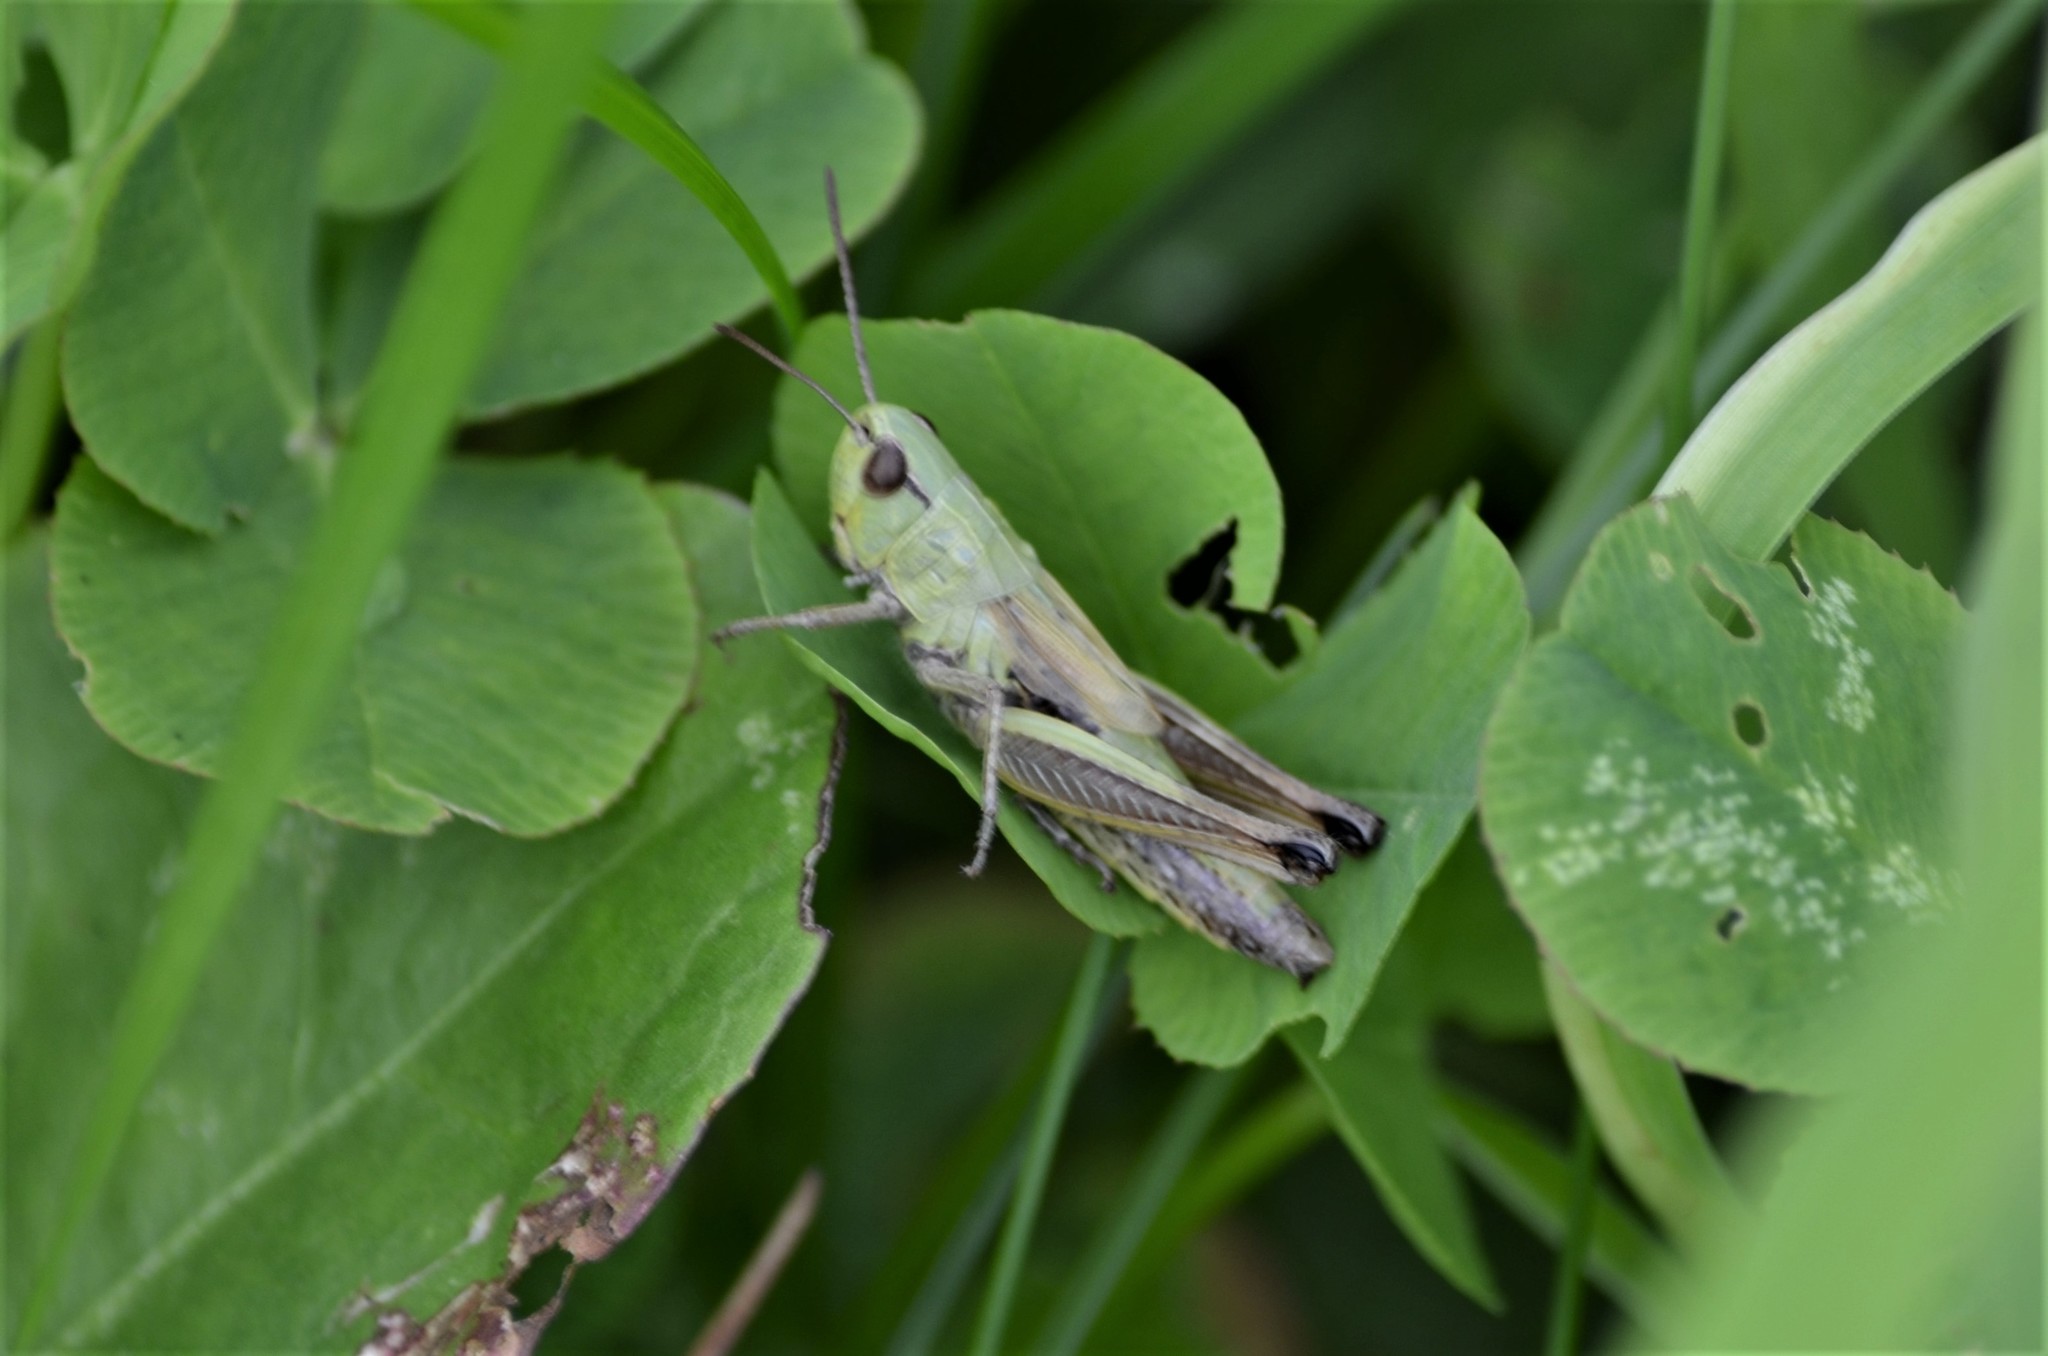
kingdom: Animalia
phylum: Arthropoda
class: Insecta
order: Orthoptera
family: Acrididae
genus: Pseudochorthippus
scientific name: Pseudochorthippus parallelus
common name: Meadow grasshopper
